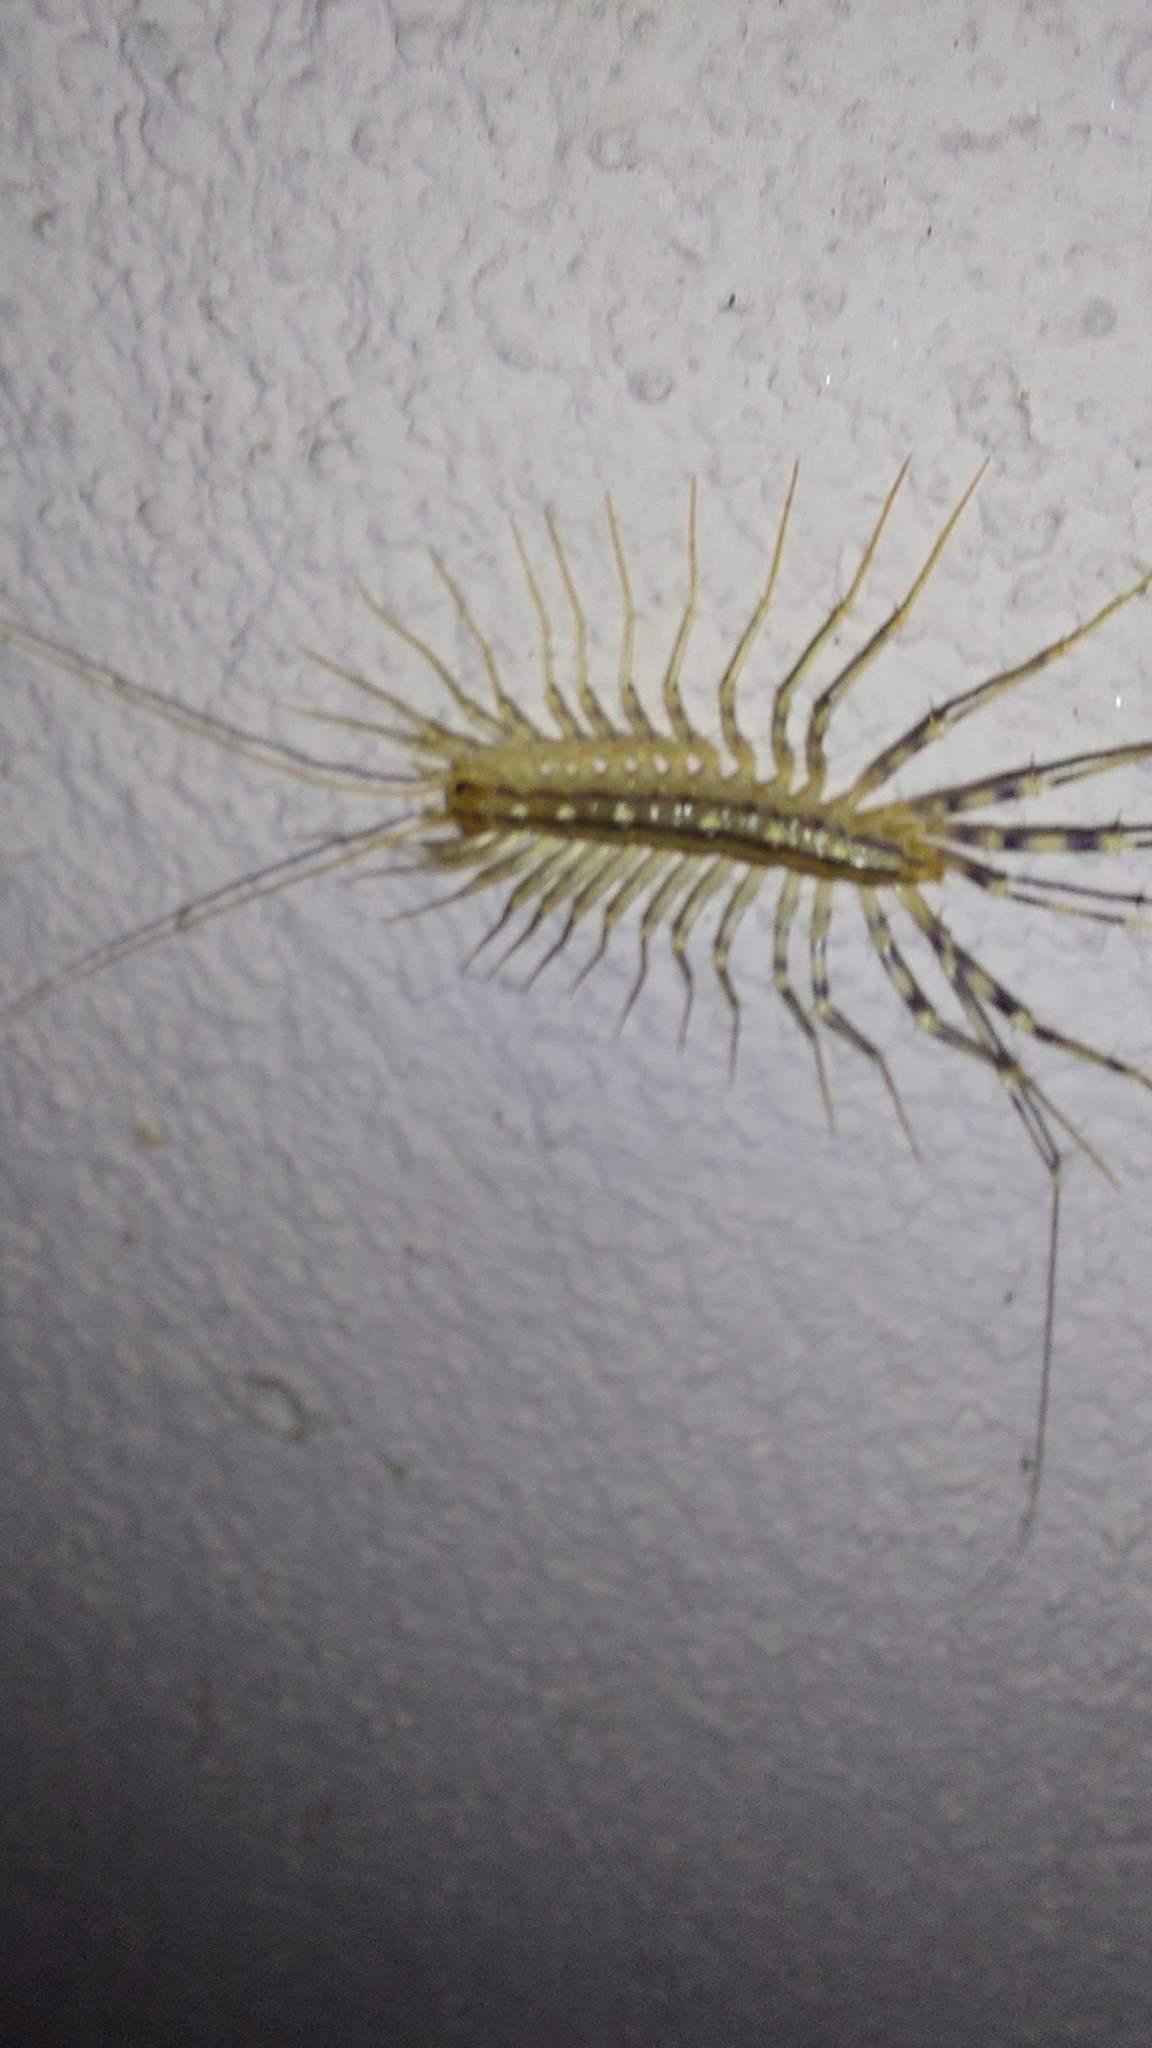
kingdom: Animalia
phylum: Arthropoda
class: Chilopoda
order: Scutigeromorpha
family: Scutigeridae
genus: Scutigera
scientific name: Scutigera coleoptrata
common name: House centipede
